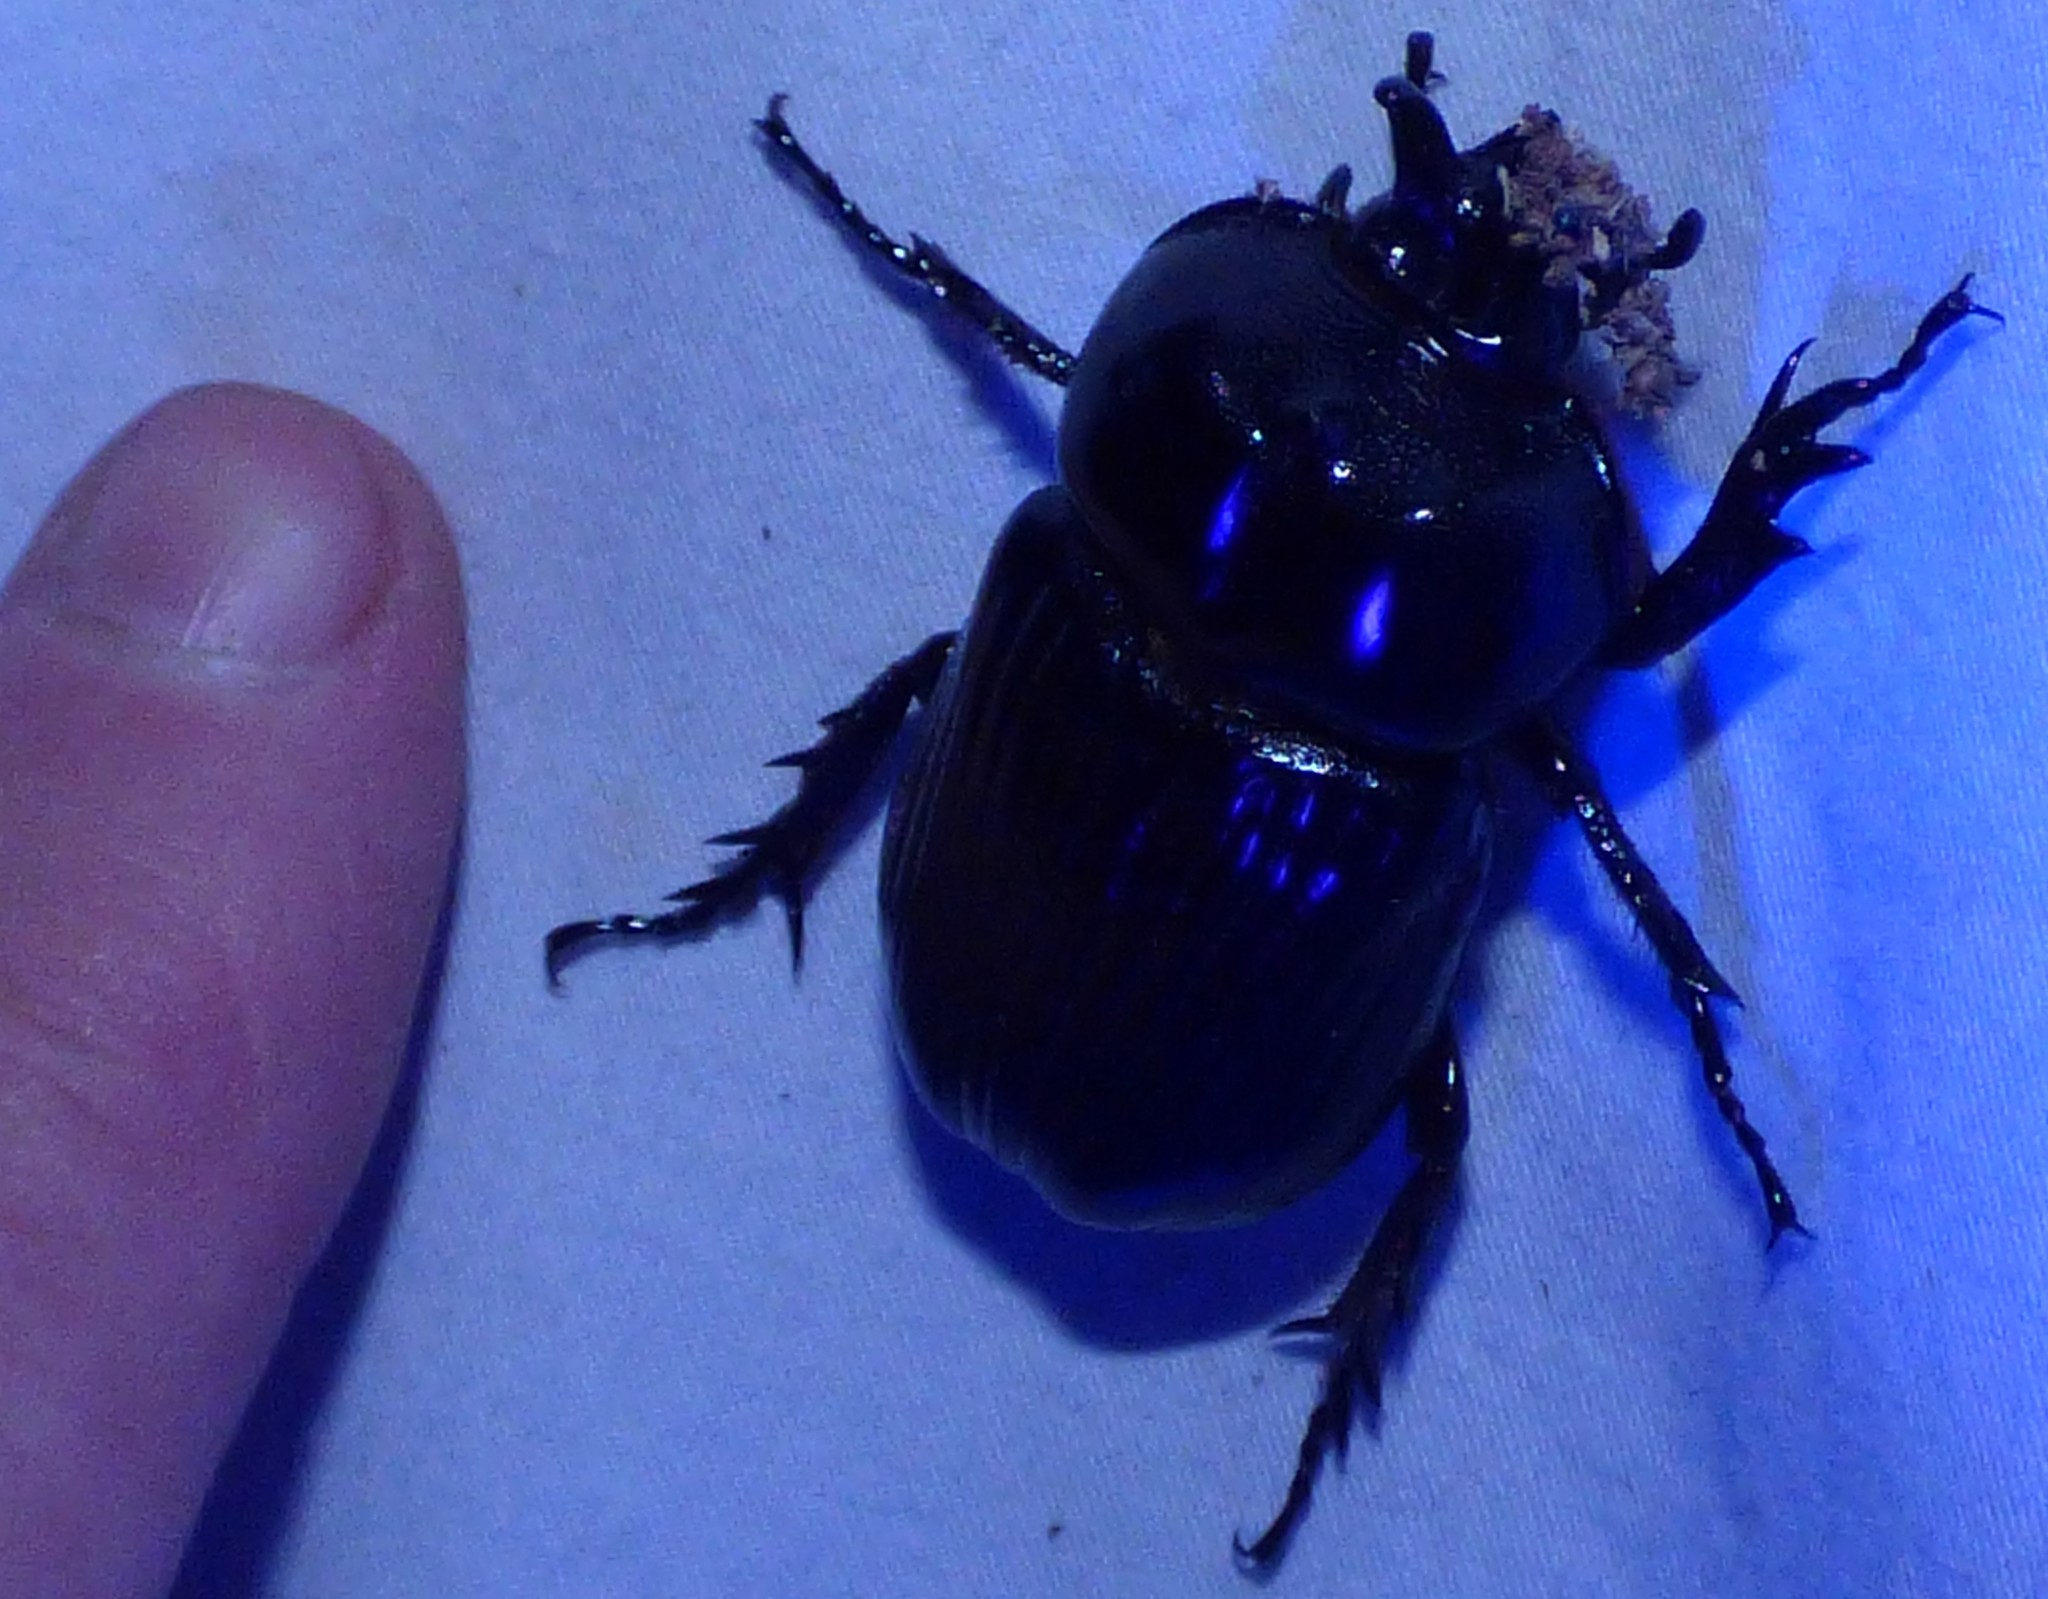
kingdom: Animalia
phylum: Arthropoda
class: Insecta
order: Coleoptera
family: Scarabaeidae
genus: Phileurus
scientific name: Phileurus truncatus
